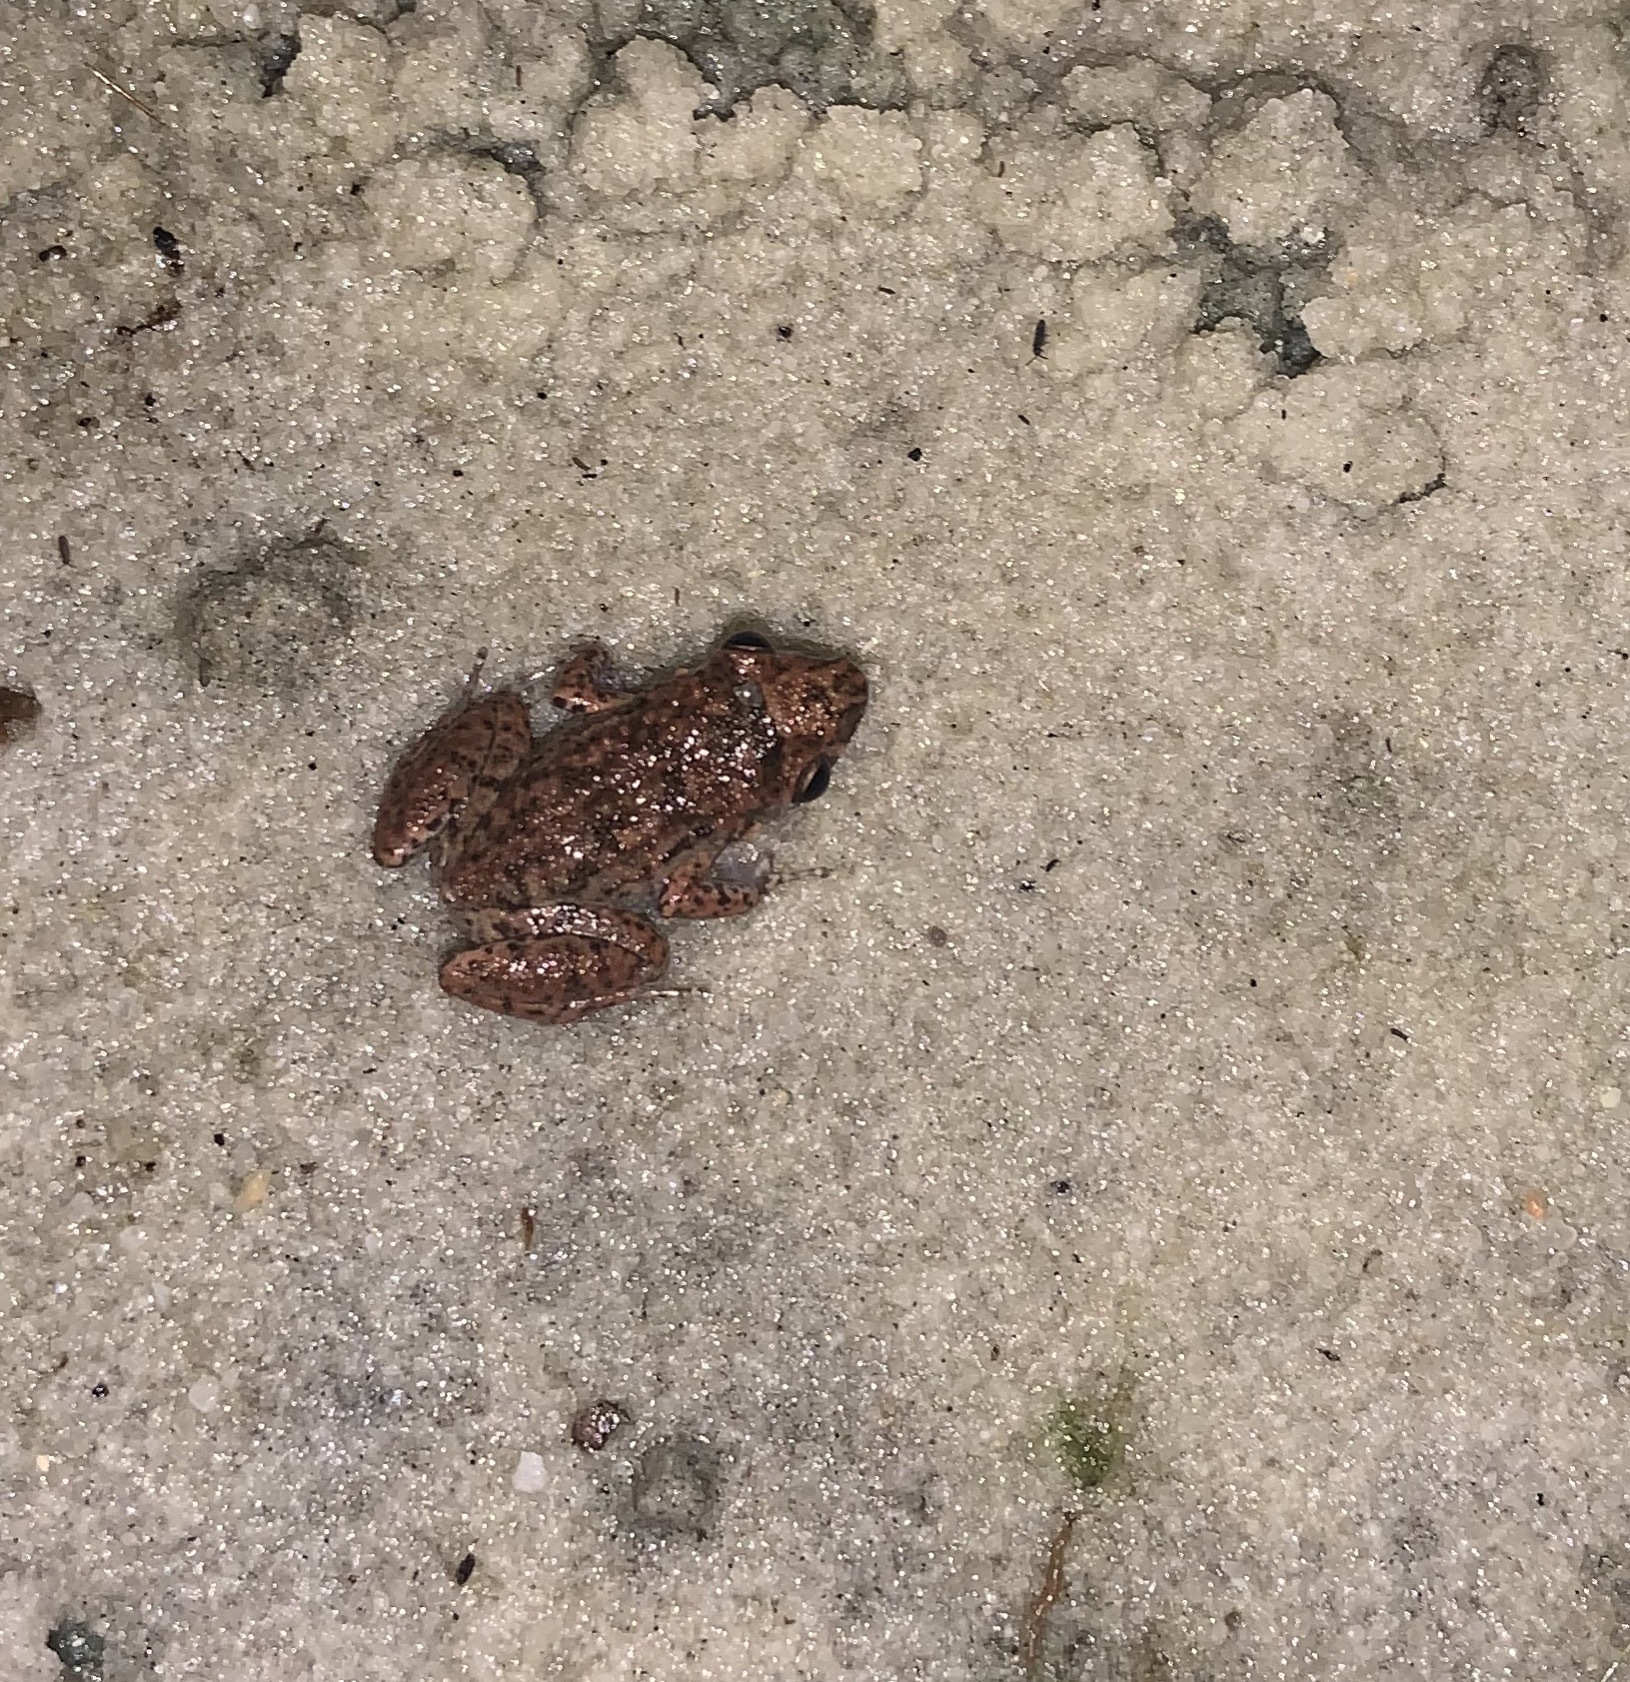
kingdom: Animalia
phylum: Chordata
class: Amphibia
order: Anura
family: Eleutherodactylidae
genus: Eleutherodactylus
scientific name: Eleutherodactylus planirostris
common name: Greenhouse frog
